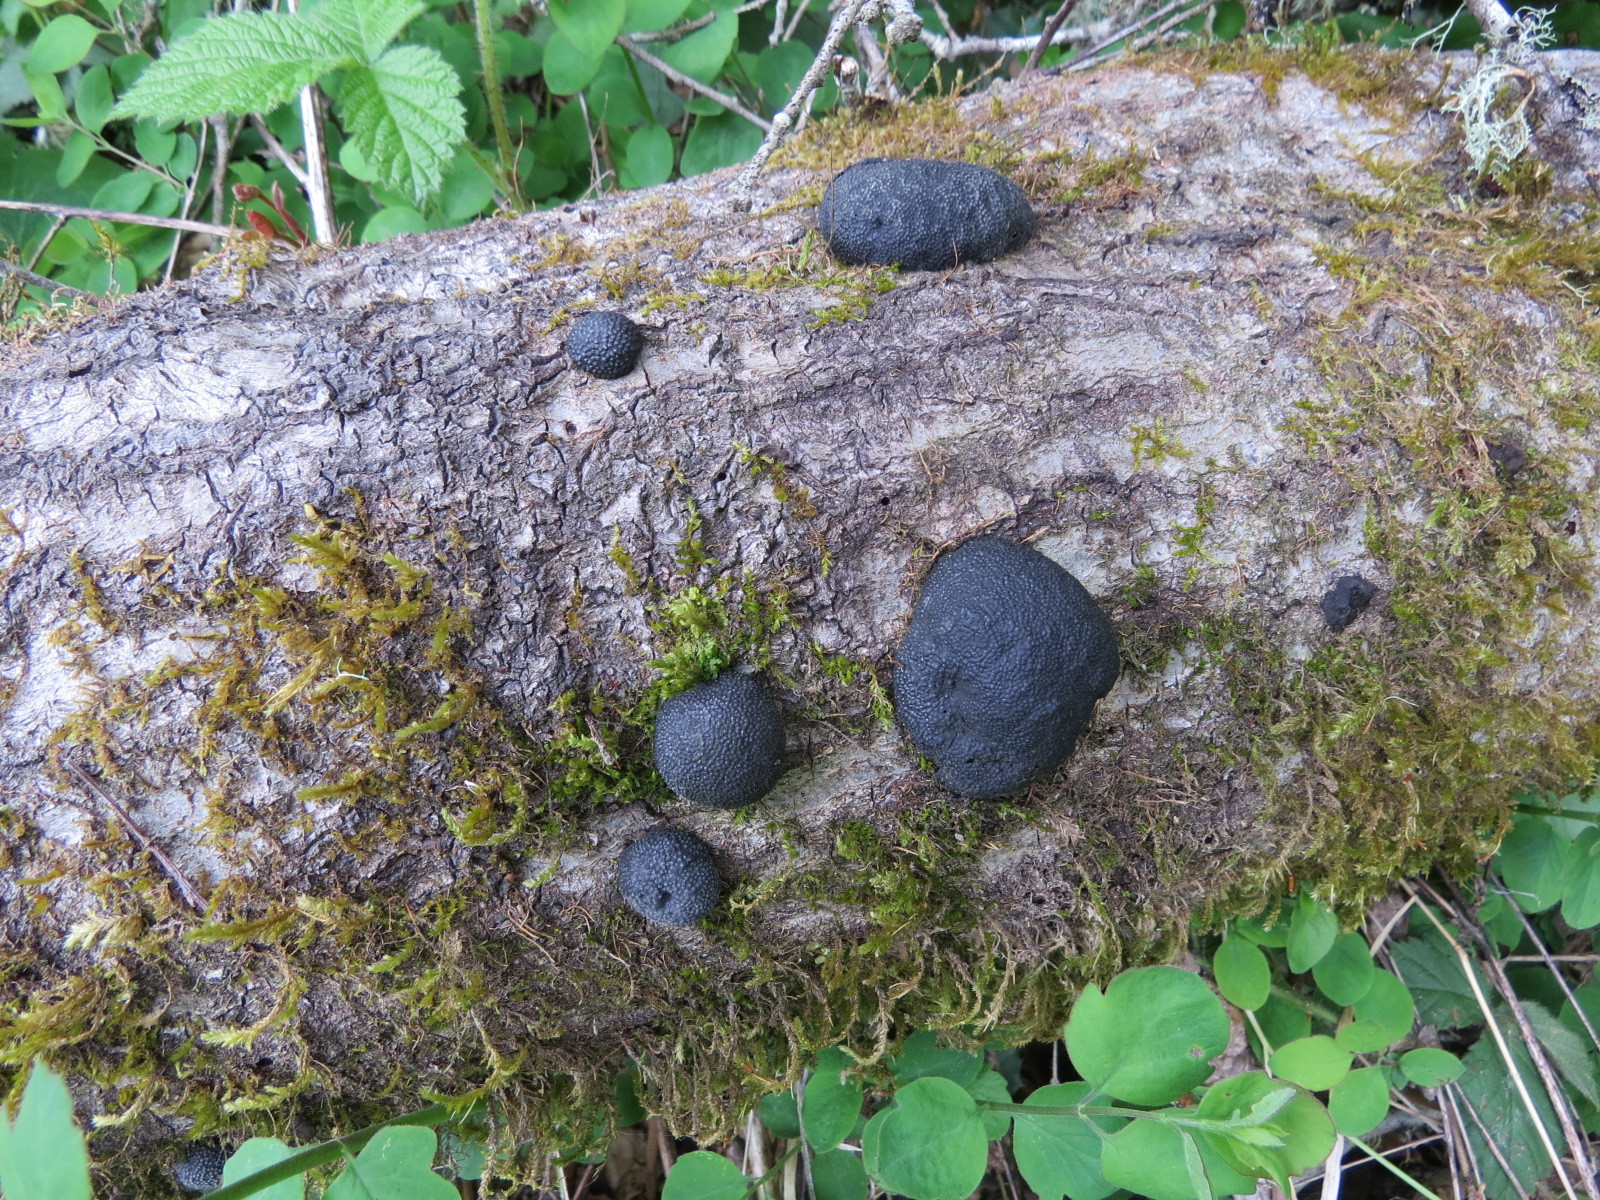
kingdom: Fungi
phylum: Ascomycota
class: Sordariomycetes
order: Xylariales
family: Hypoxylaceae
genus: Annulohypoxylon
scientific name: Annulohypoxylon thouarsianum
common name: Cramp balls
